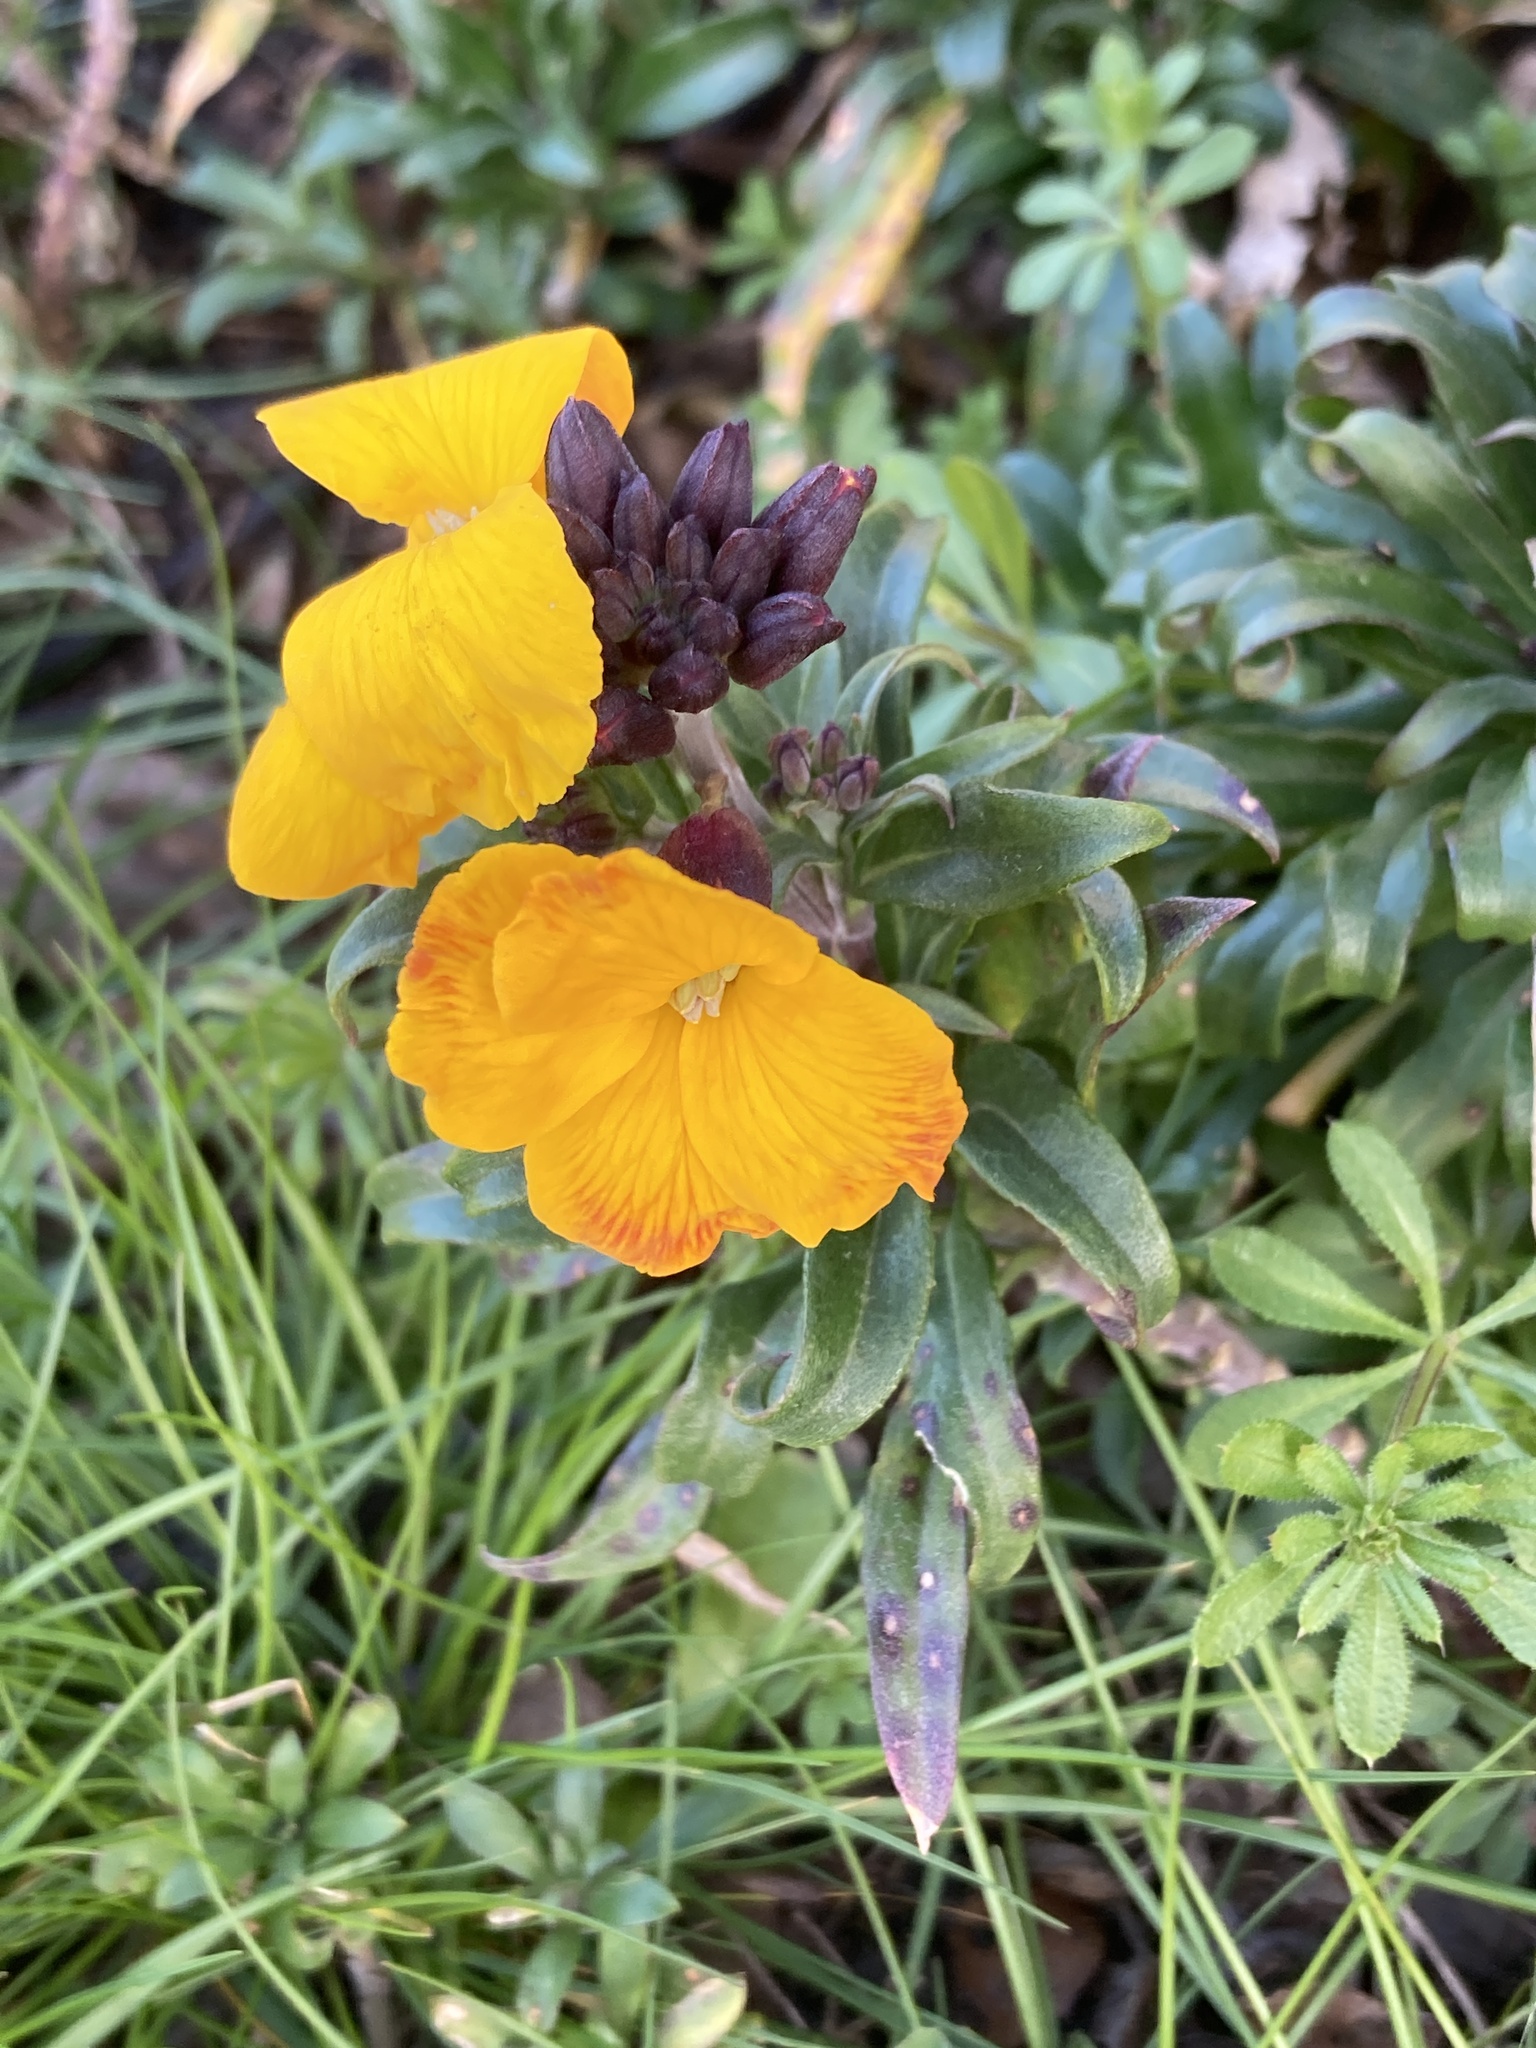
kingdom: Plantae
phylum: Tracheophyta
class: Magnoliopsida
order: Brassicales
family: Brassicaceae
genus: Erysimum
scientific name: Erysimum cheiri
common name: Wallflower
